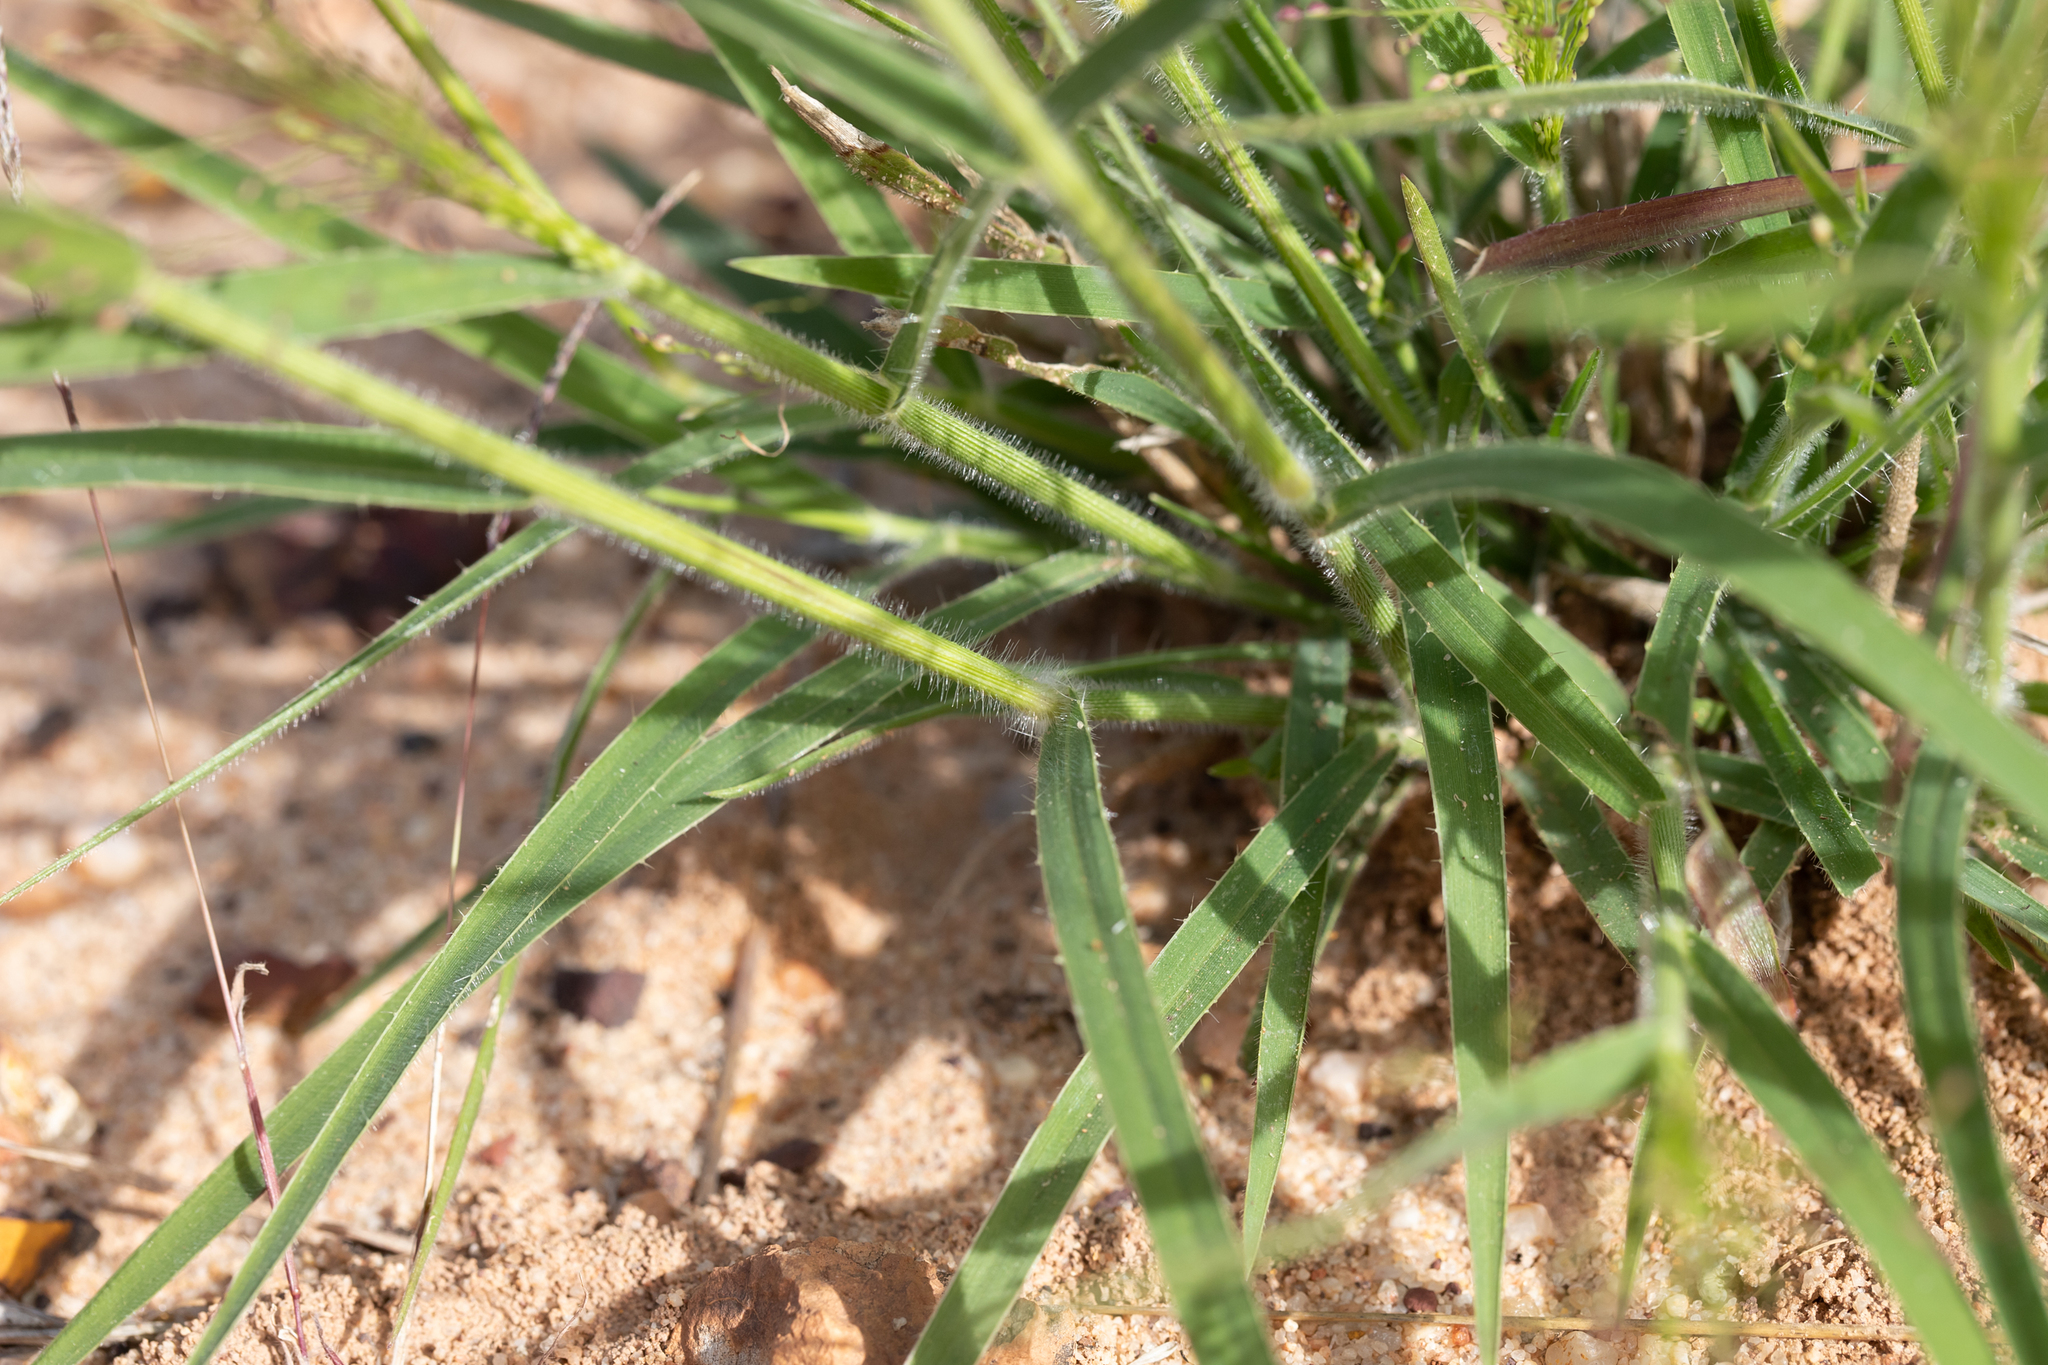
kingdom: Plantae
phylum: Tracheophyta
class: Liliopsida
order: Poales
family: Poaceae
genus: Panicum
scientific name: Panicum effusum
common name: Hairy panic grass
